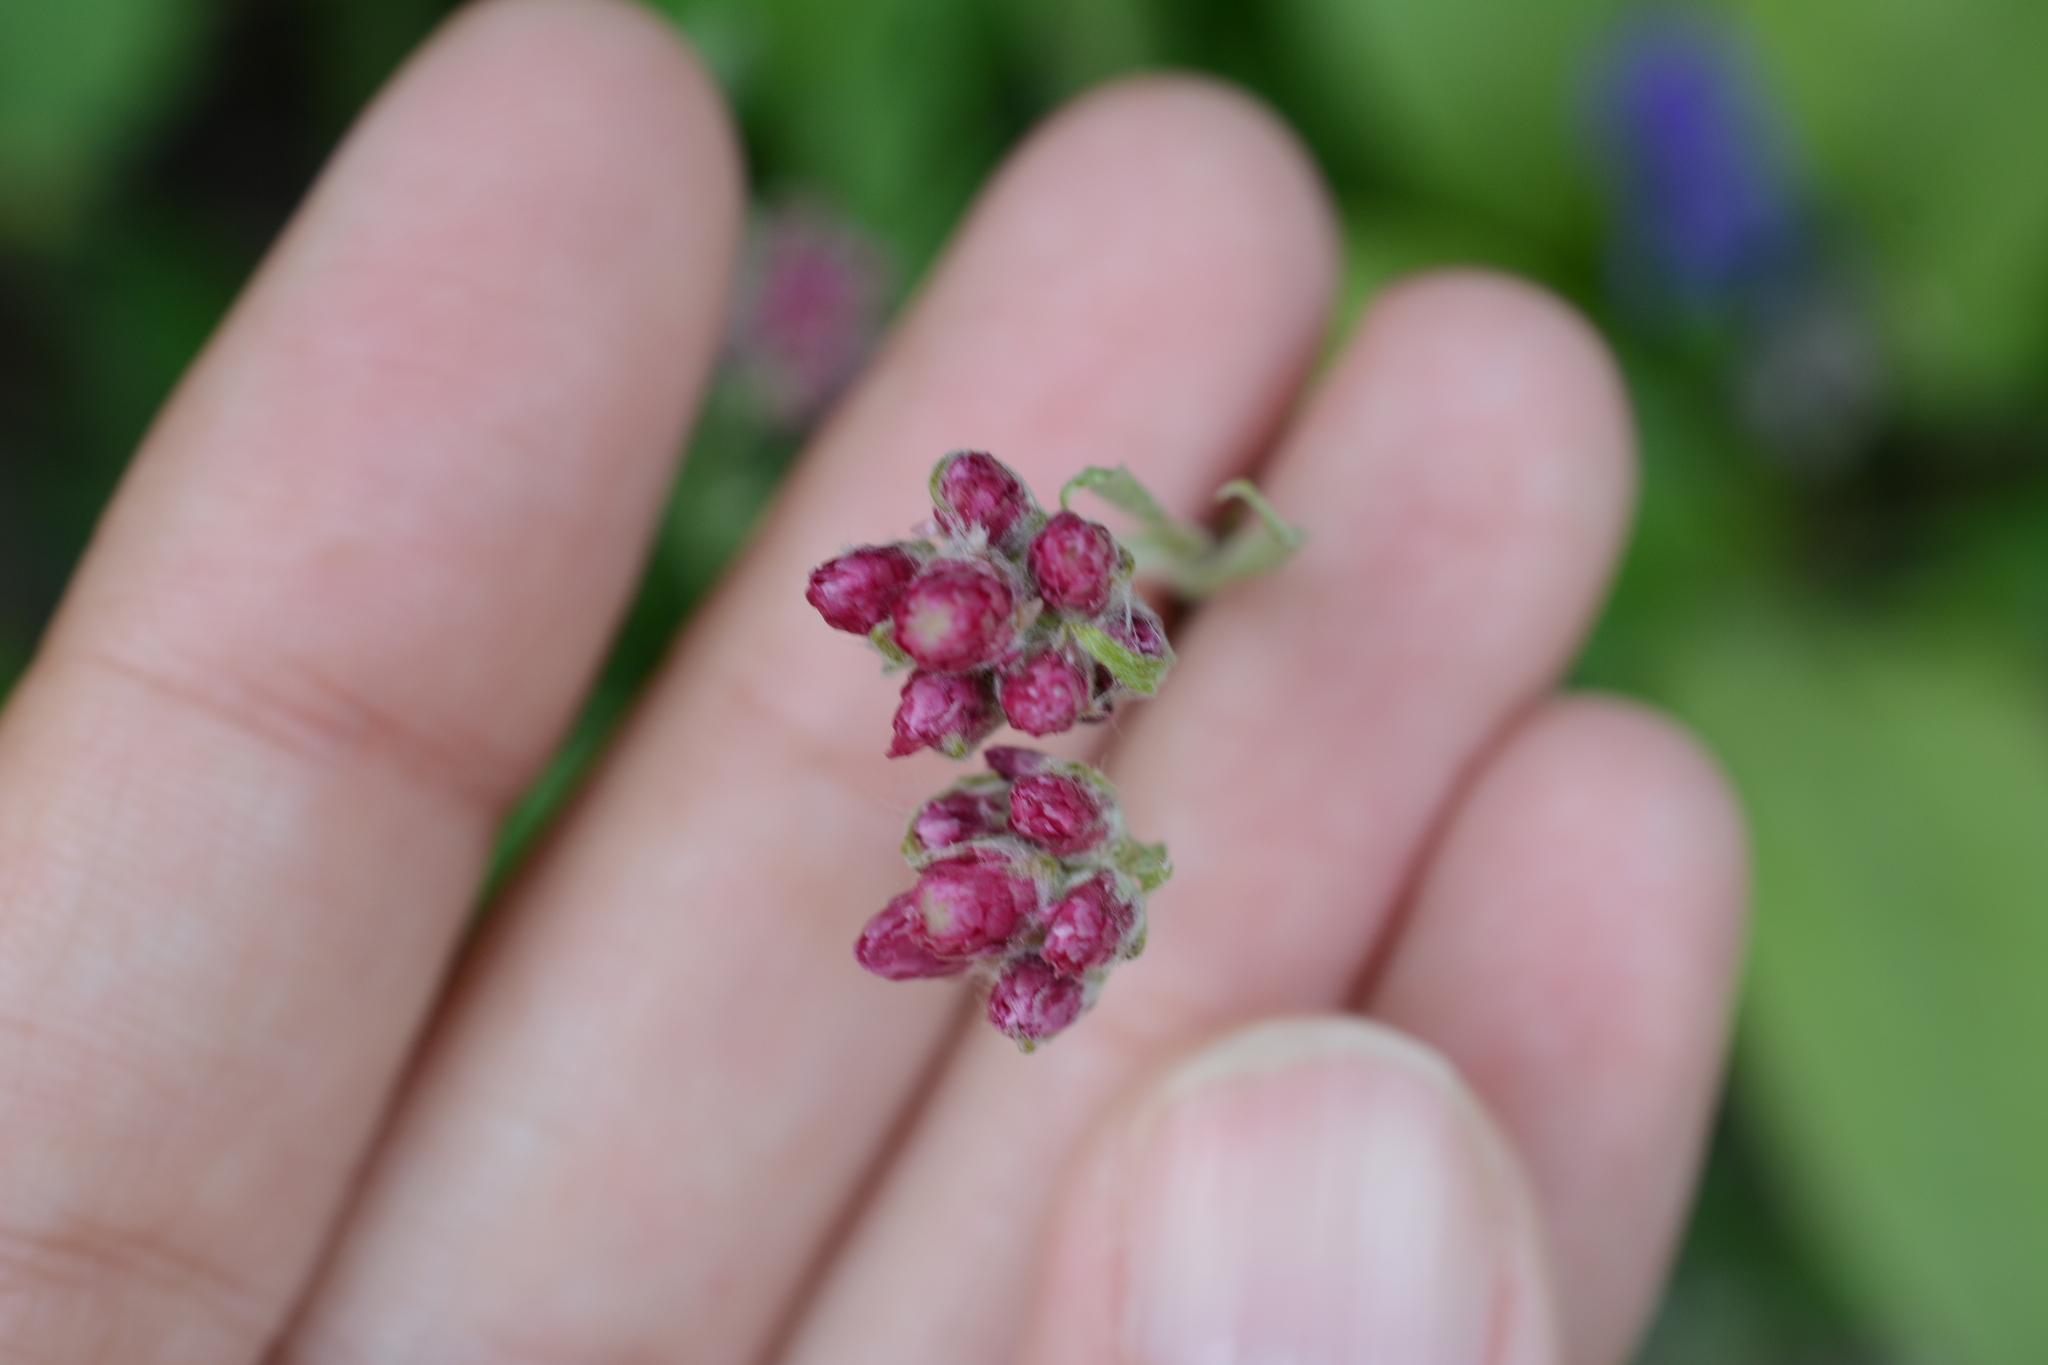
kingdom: Plantae
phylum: Tracheophyta
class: Magnoliopsida
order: Asterales
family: Asteraceae
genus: Antennaria
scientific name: Antennaria rosea
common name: Rosy pussytoes
